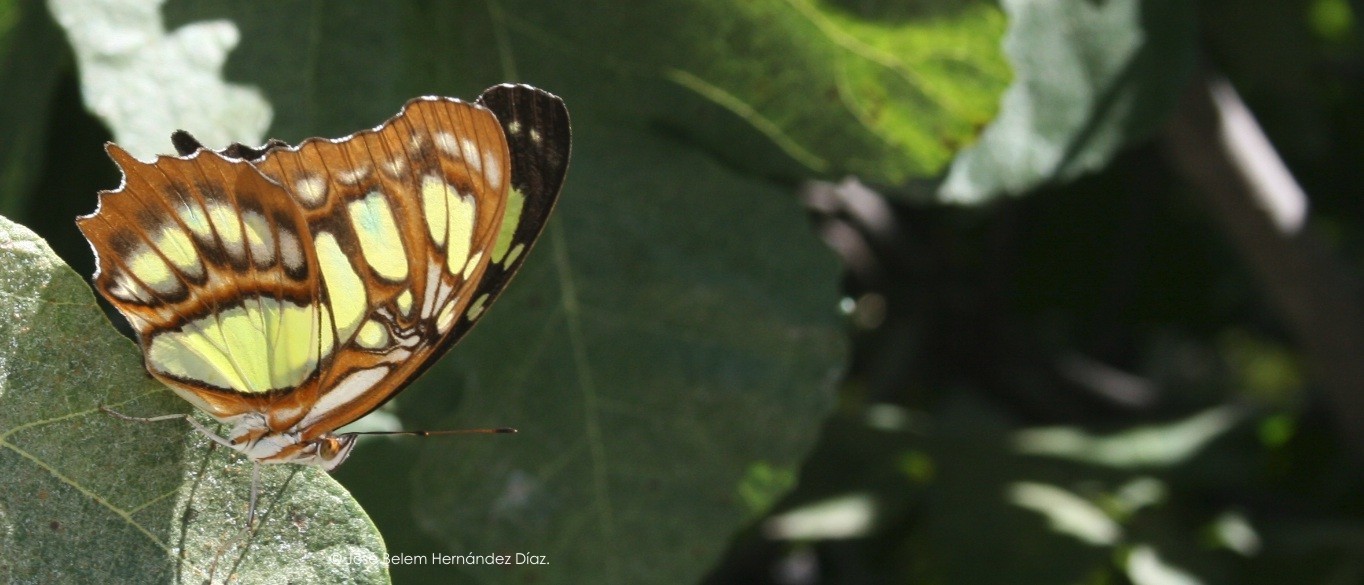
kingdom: Animalia
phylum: Arthropoda
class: Insecta
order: Lepidoptera
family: Nymphalidae
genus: Siproeta
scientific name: Siproeta stelenes
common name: Malachite
